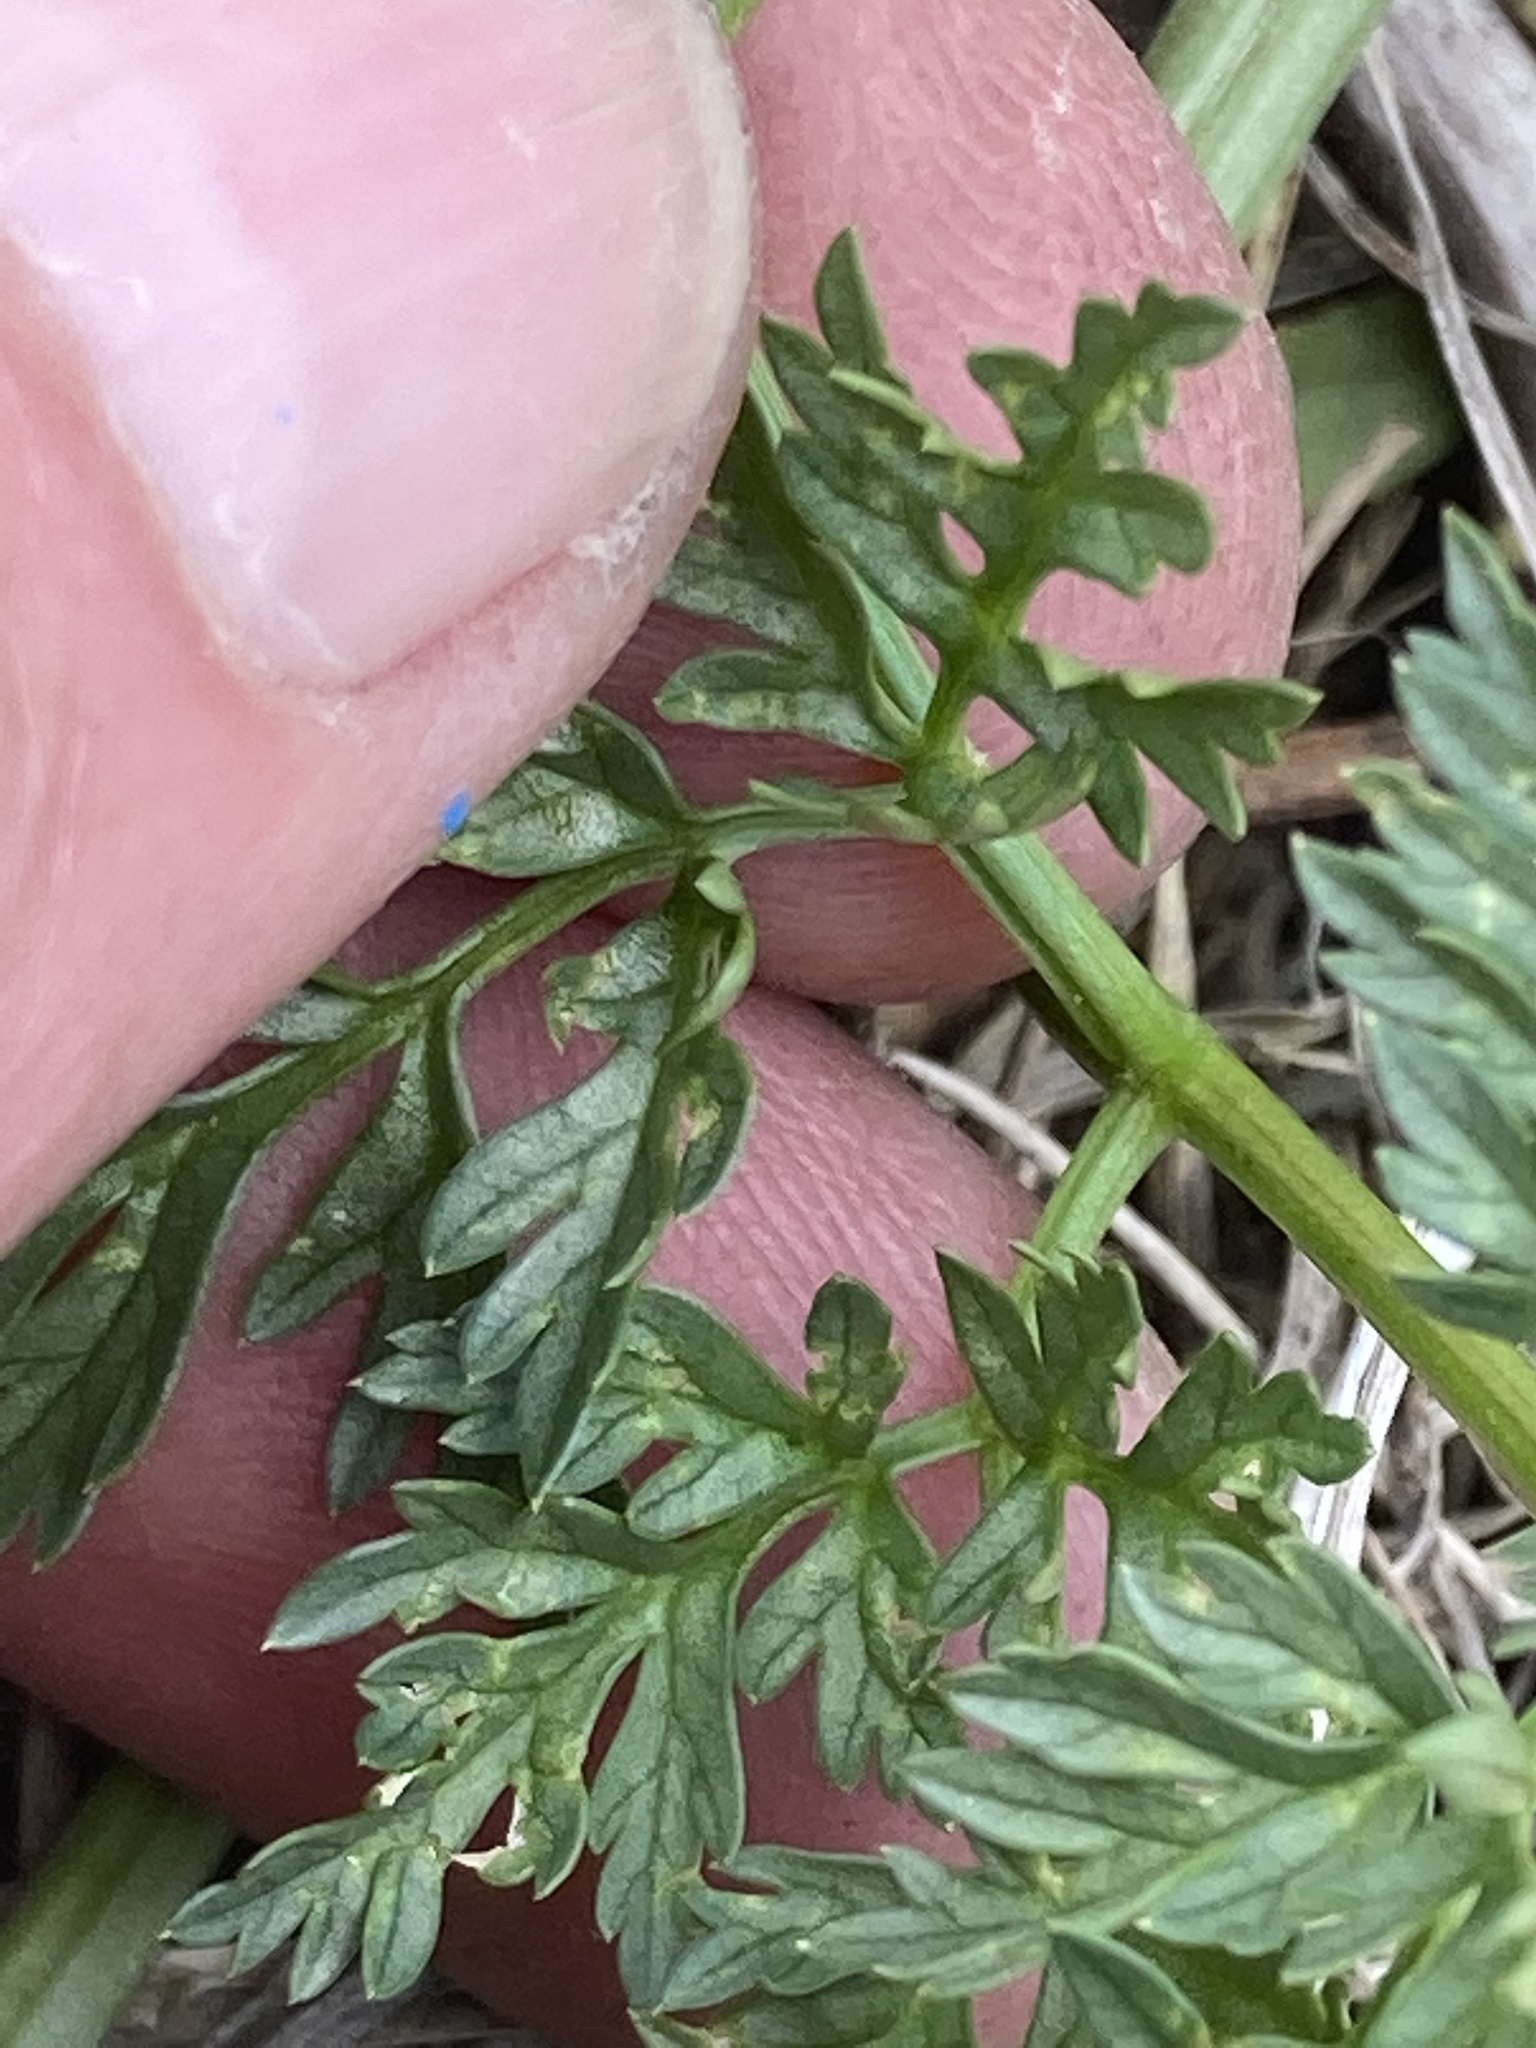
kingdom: Plantae
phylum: Tracheophyta
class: Magnoliopsida
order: Apiales
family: Apiaceae
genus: Conium
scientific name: Conium maculatum
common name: Hemlock
